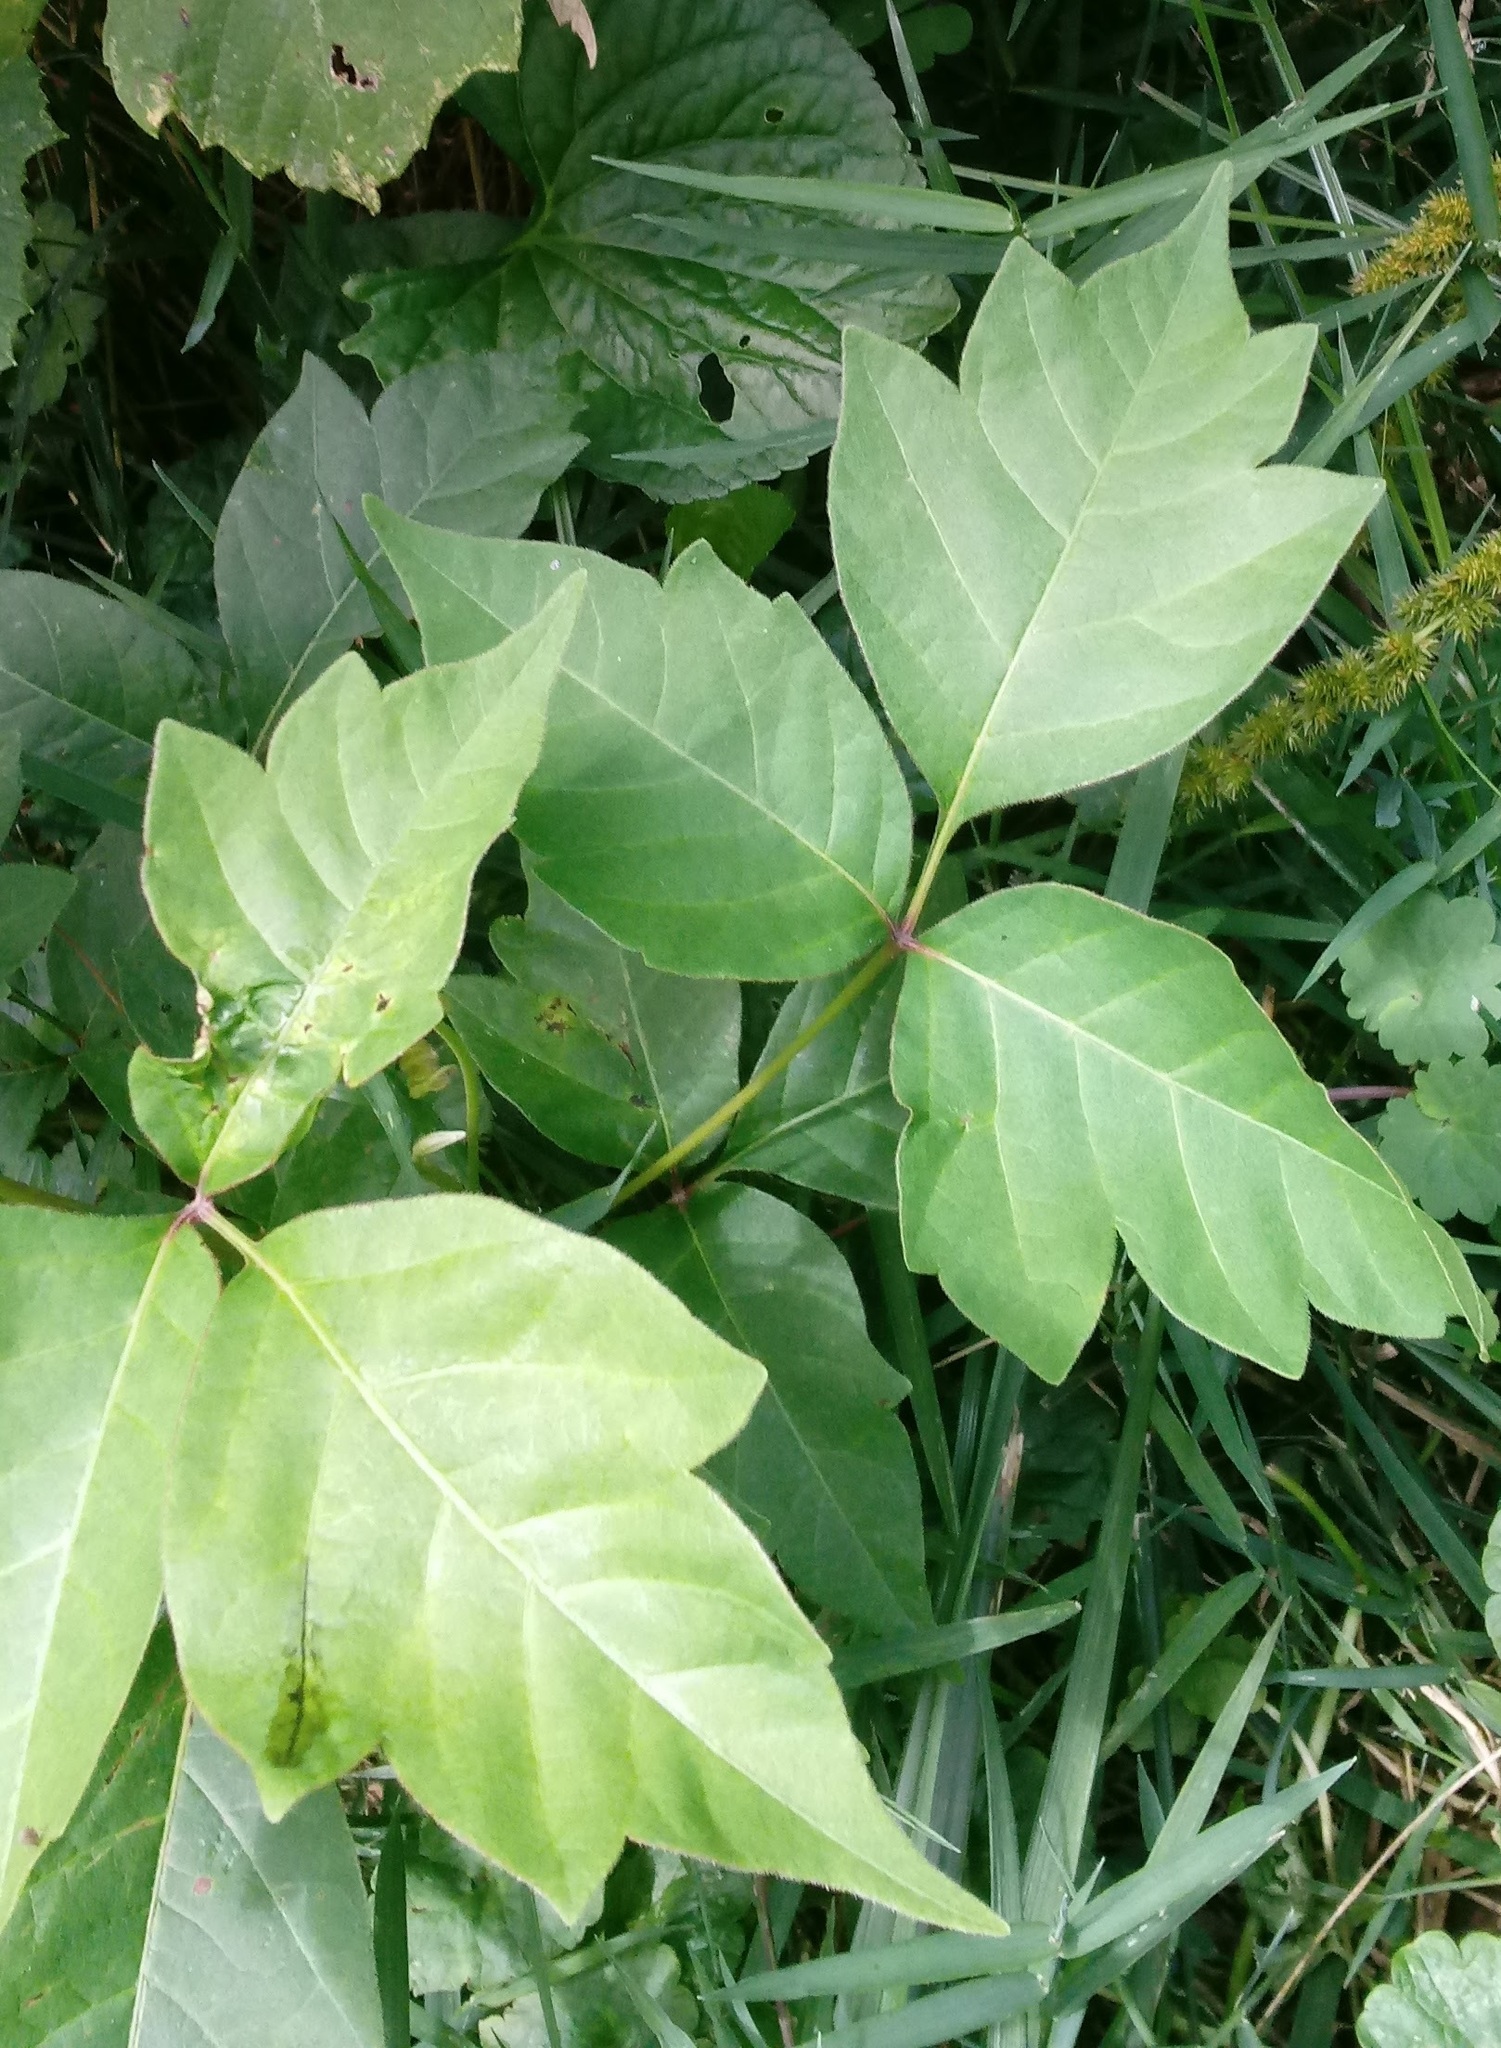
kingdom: Plantae
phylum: Tracheophyta
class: Magnoliopsida
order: Sapindales
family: Anacardiaceae
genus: Toxicodendron
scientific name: Toxicodendron radicans
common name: Poison ivy
